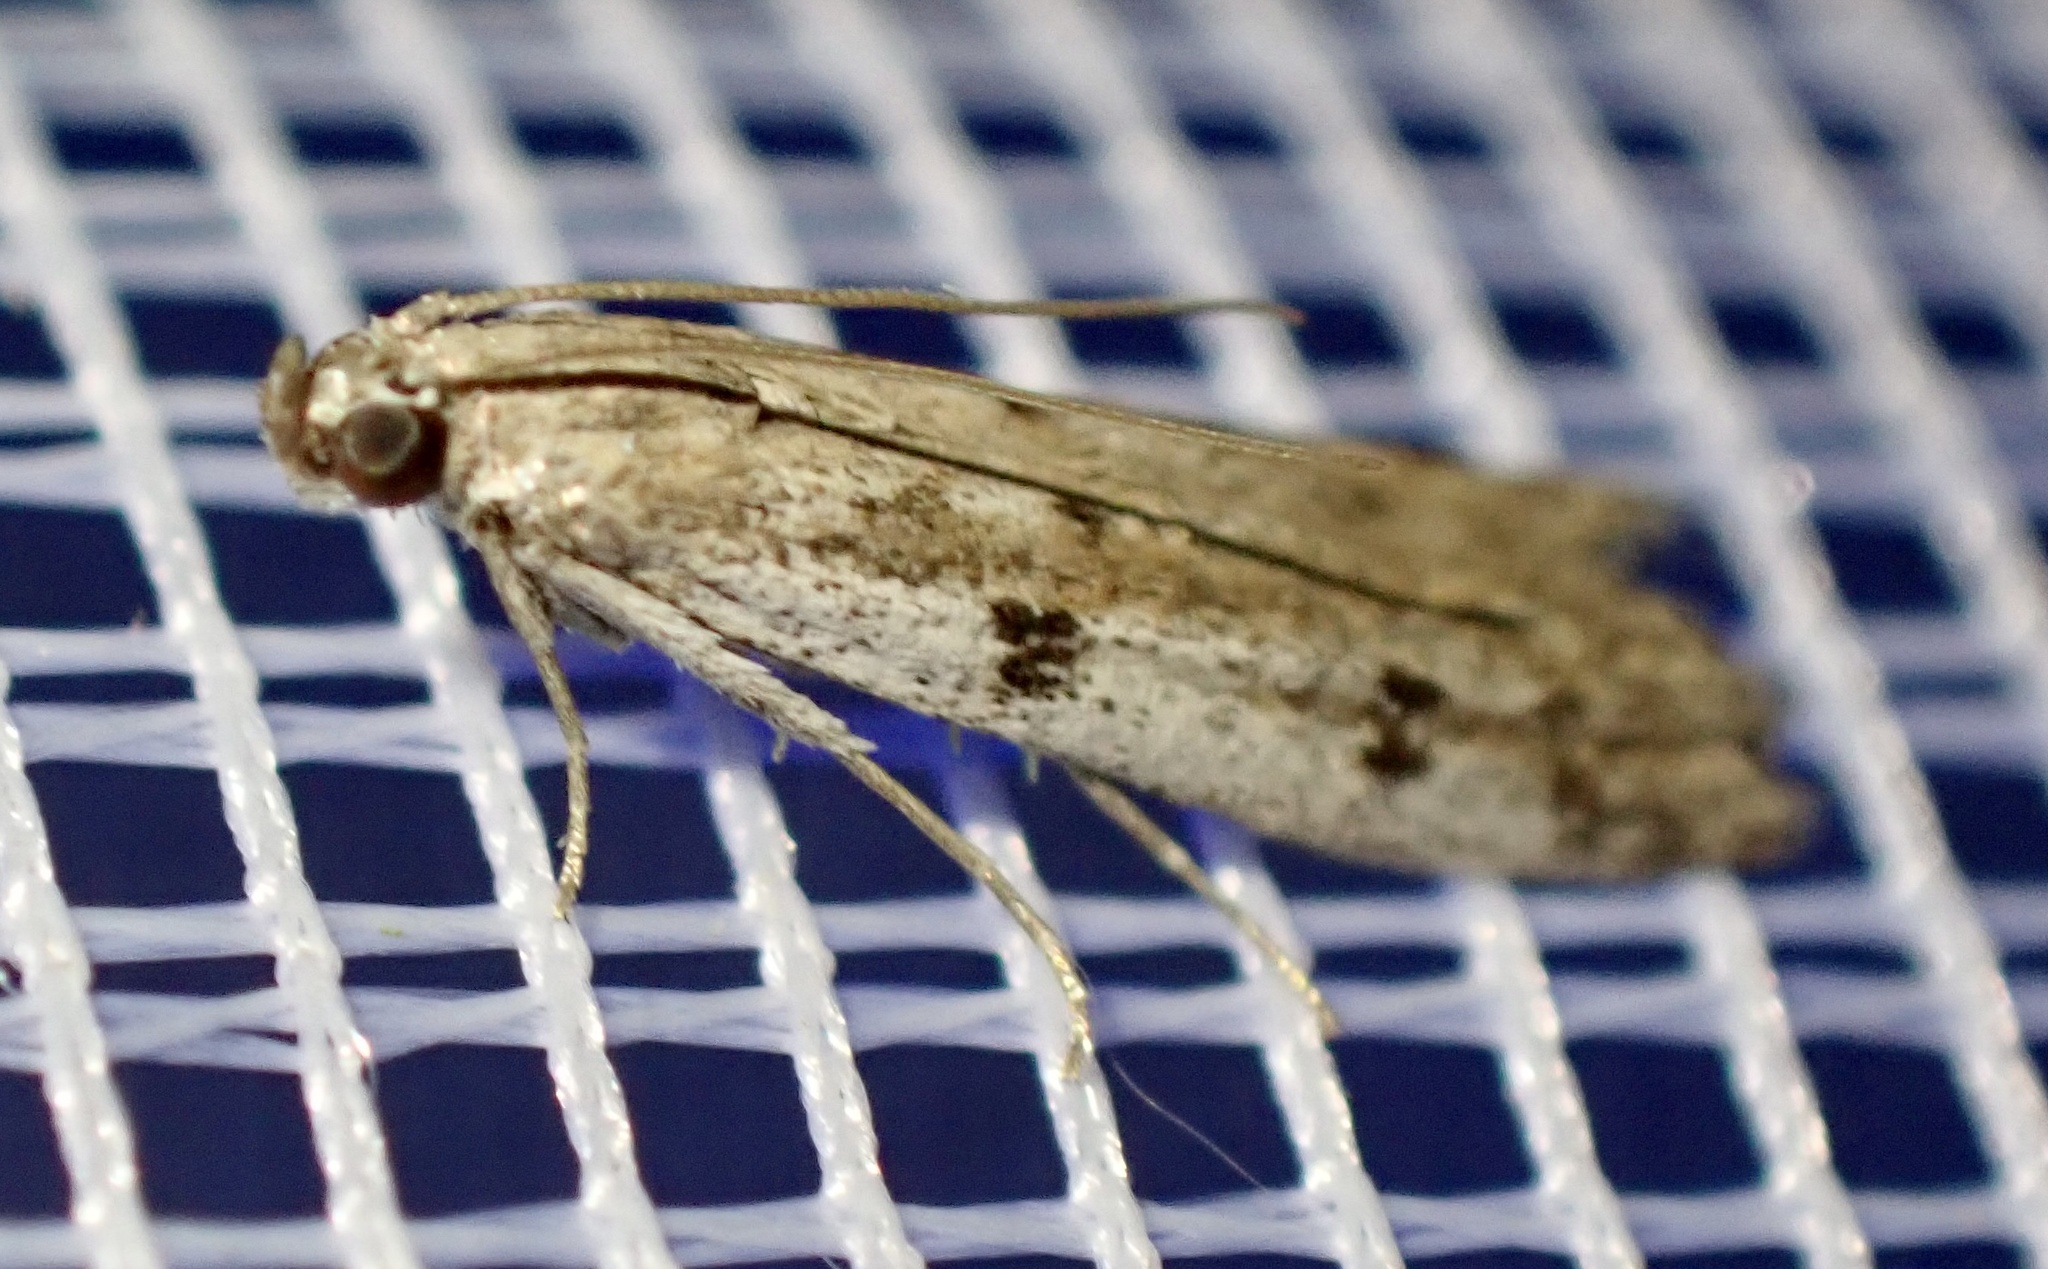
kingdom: Animalia
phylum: Arthropoda
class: Insecta
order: Lepidoptera
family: Pyralidae
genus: Phycitodes
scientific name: Phycitodes binaevella
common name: Ermine knot-horn
